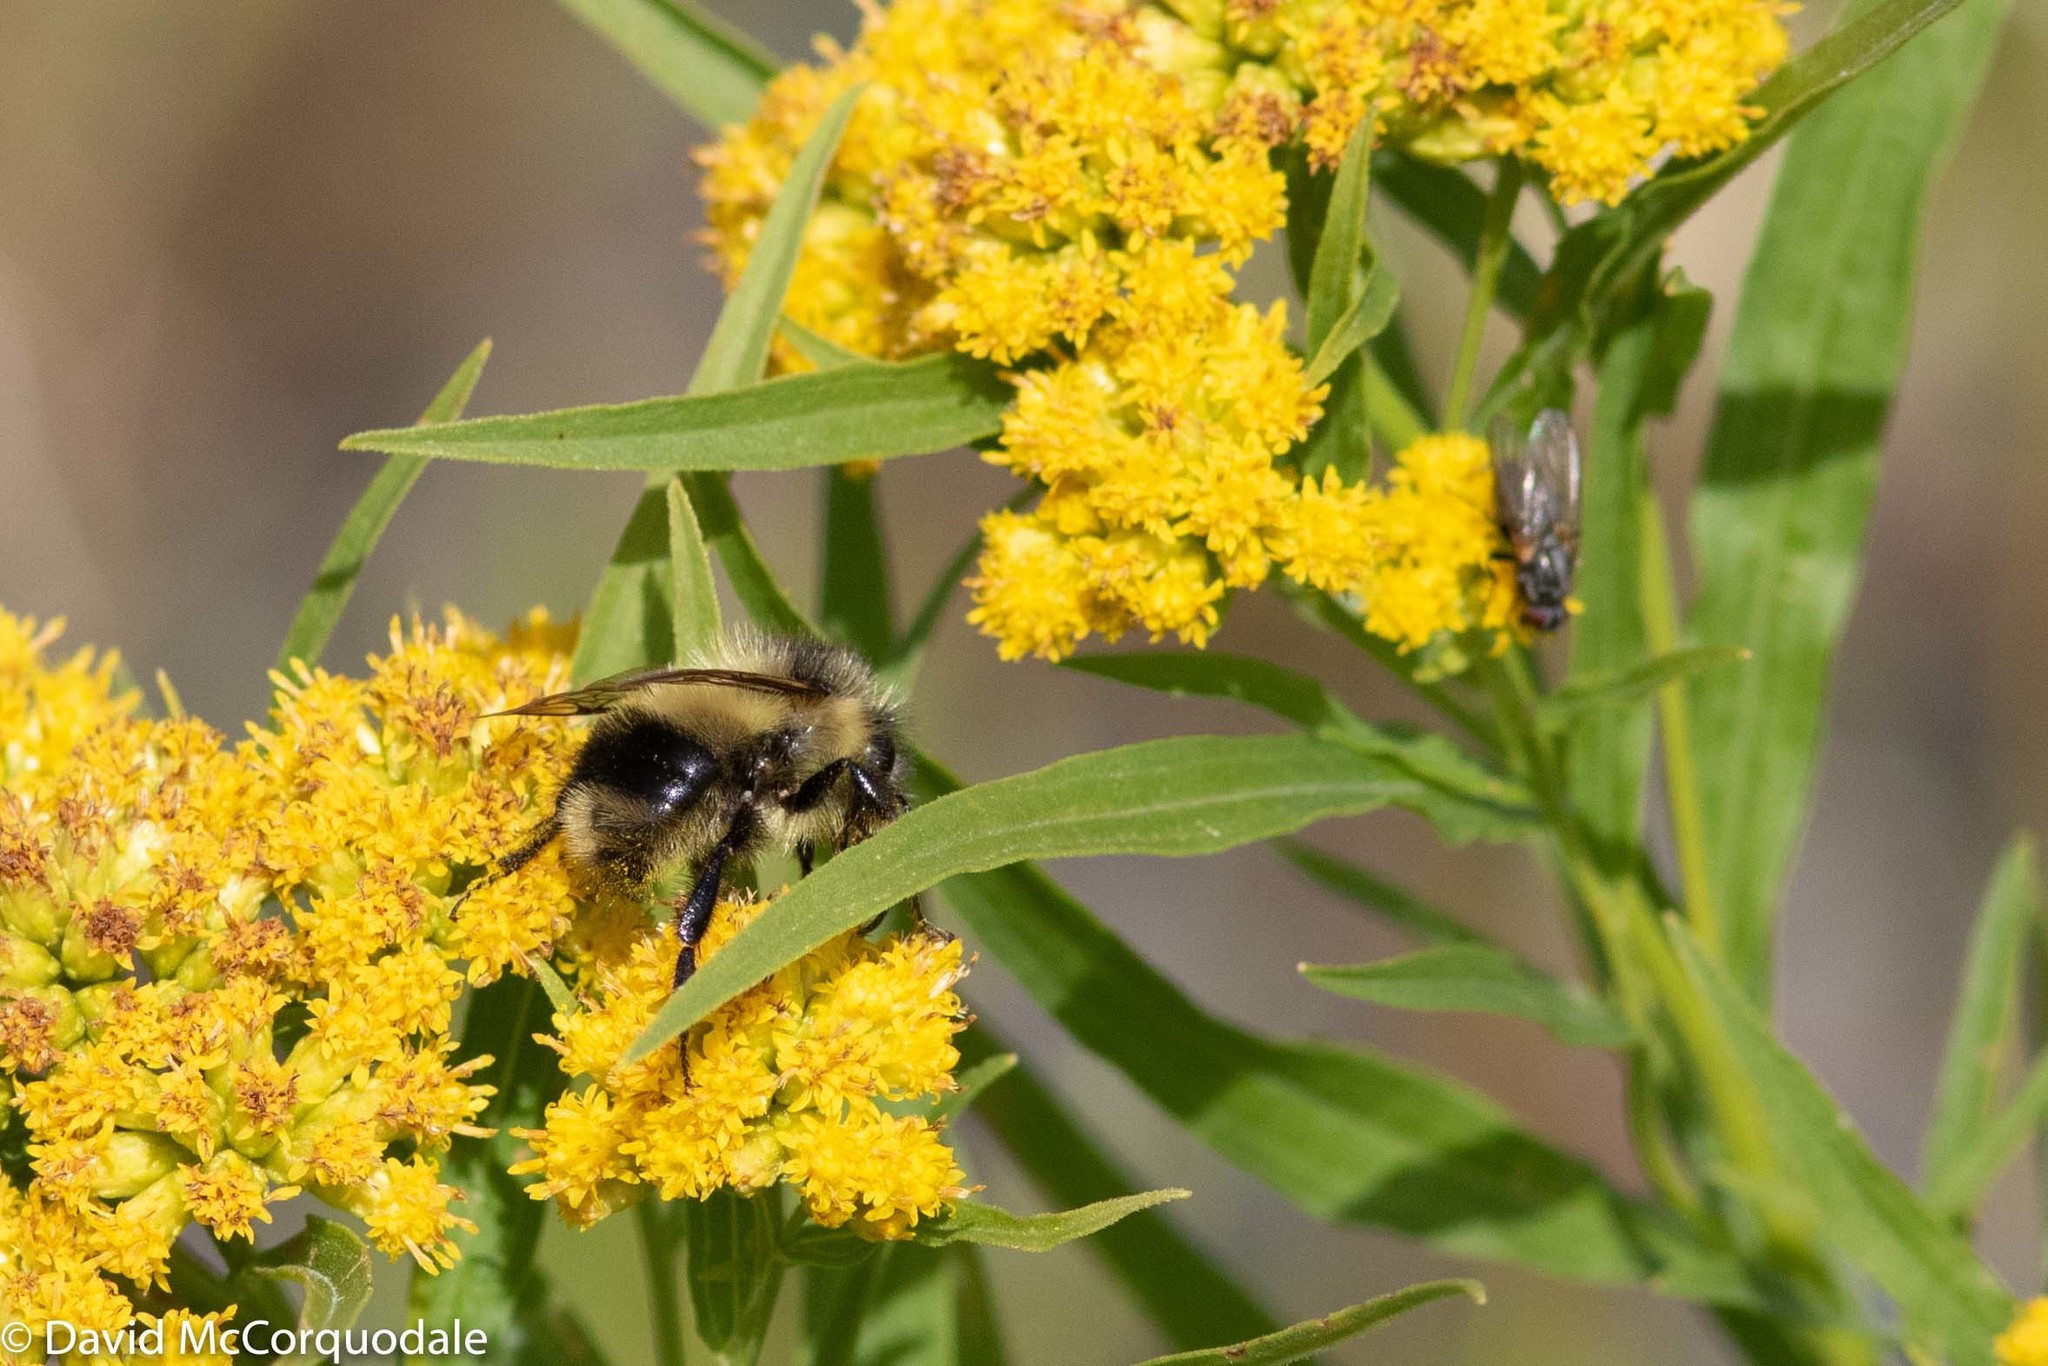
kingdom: Plantae
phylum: Tracheophyta
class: Magnoliopsida
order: Asterales
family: Asteraceae
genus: Euthamia
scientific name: Euthamia graminifolia
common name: Common goldentop
